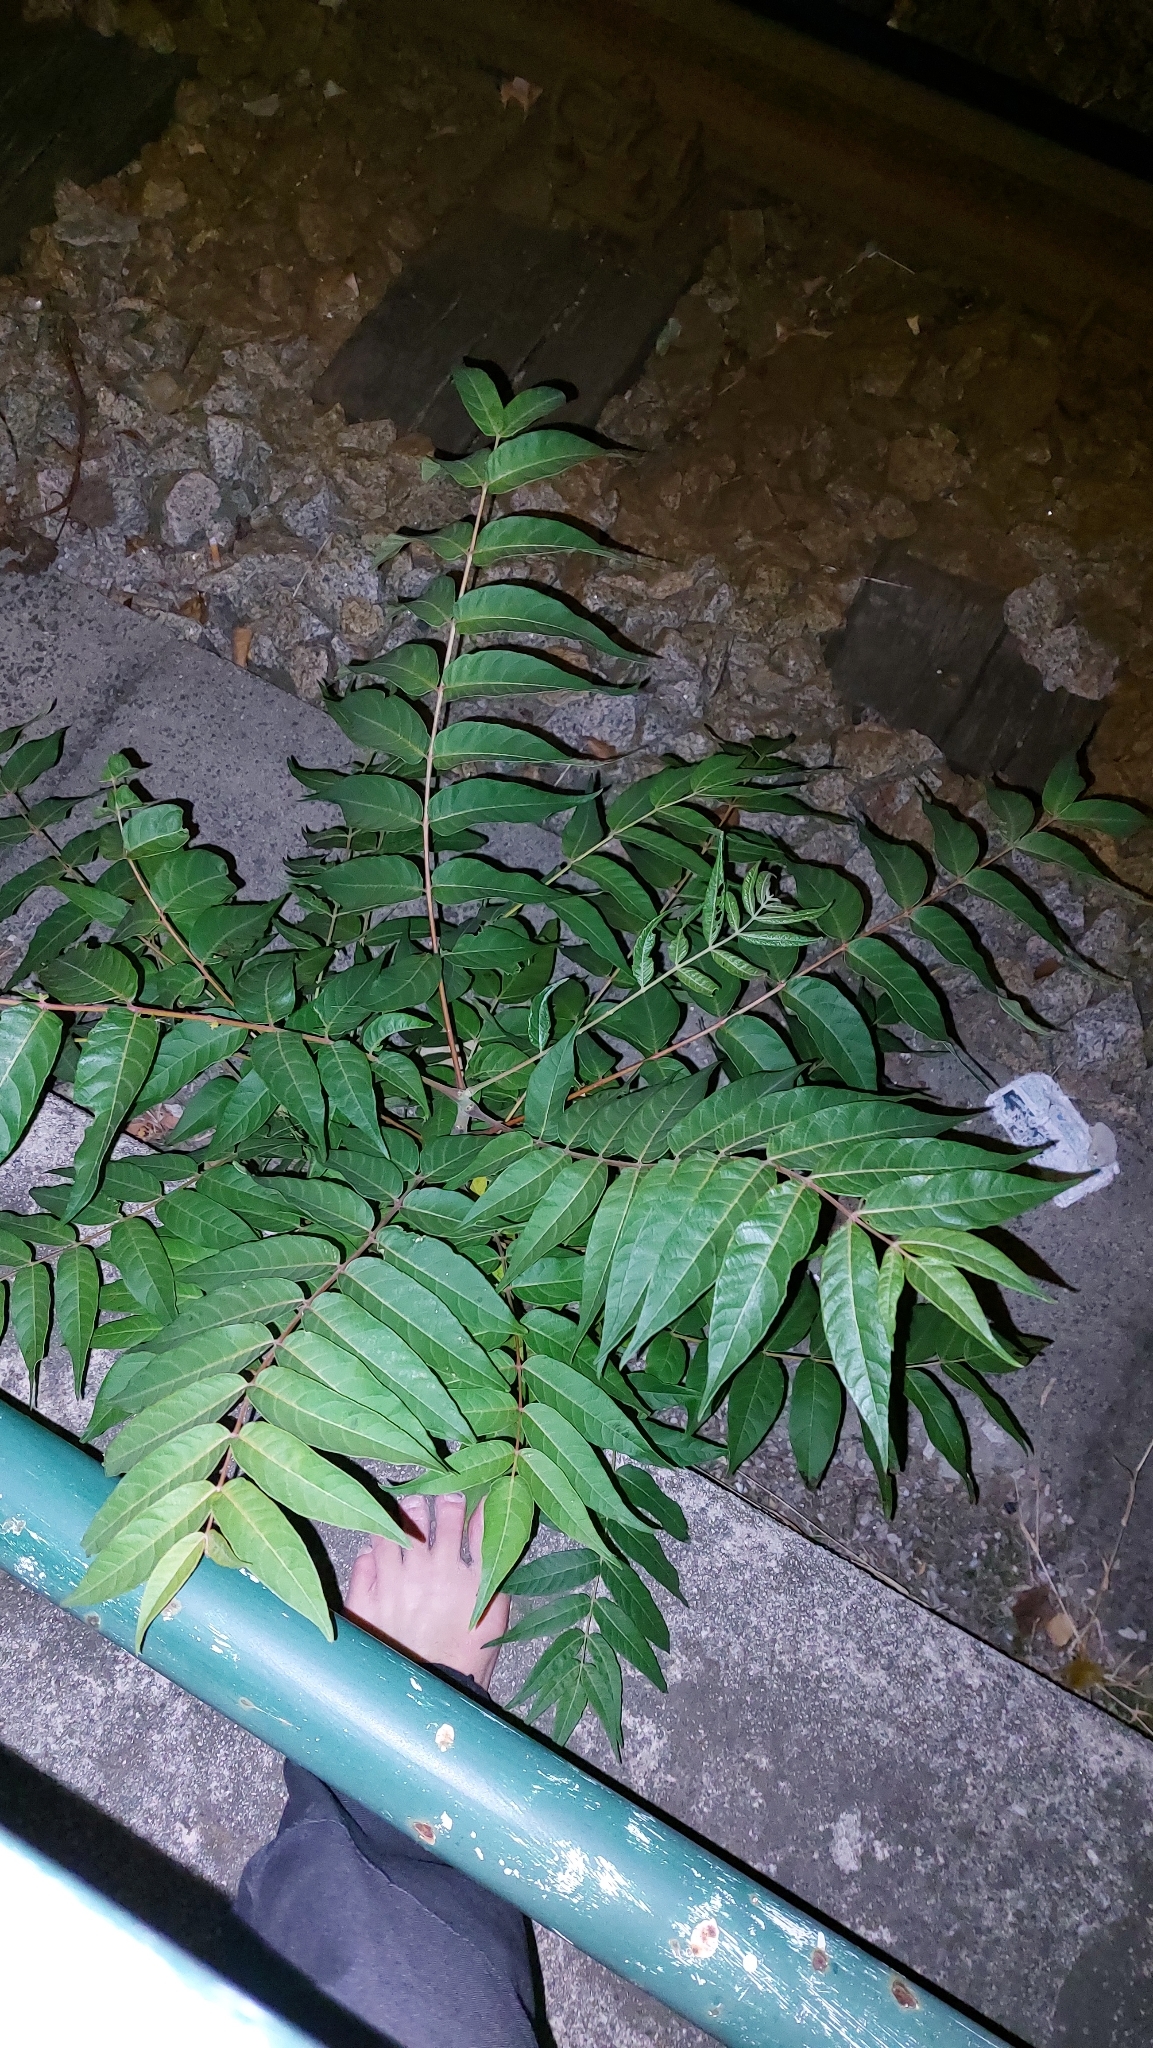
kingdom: Plantae
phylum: Tracheophyta
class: Magnoliopsida
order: Sapindales
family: Simaroubaceae
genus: Ailanthus
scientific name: Ailanthus altissima
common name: Tree-of-heaven
